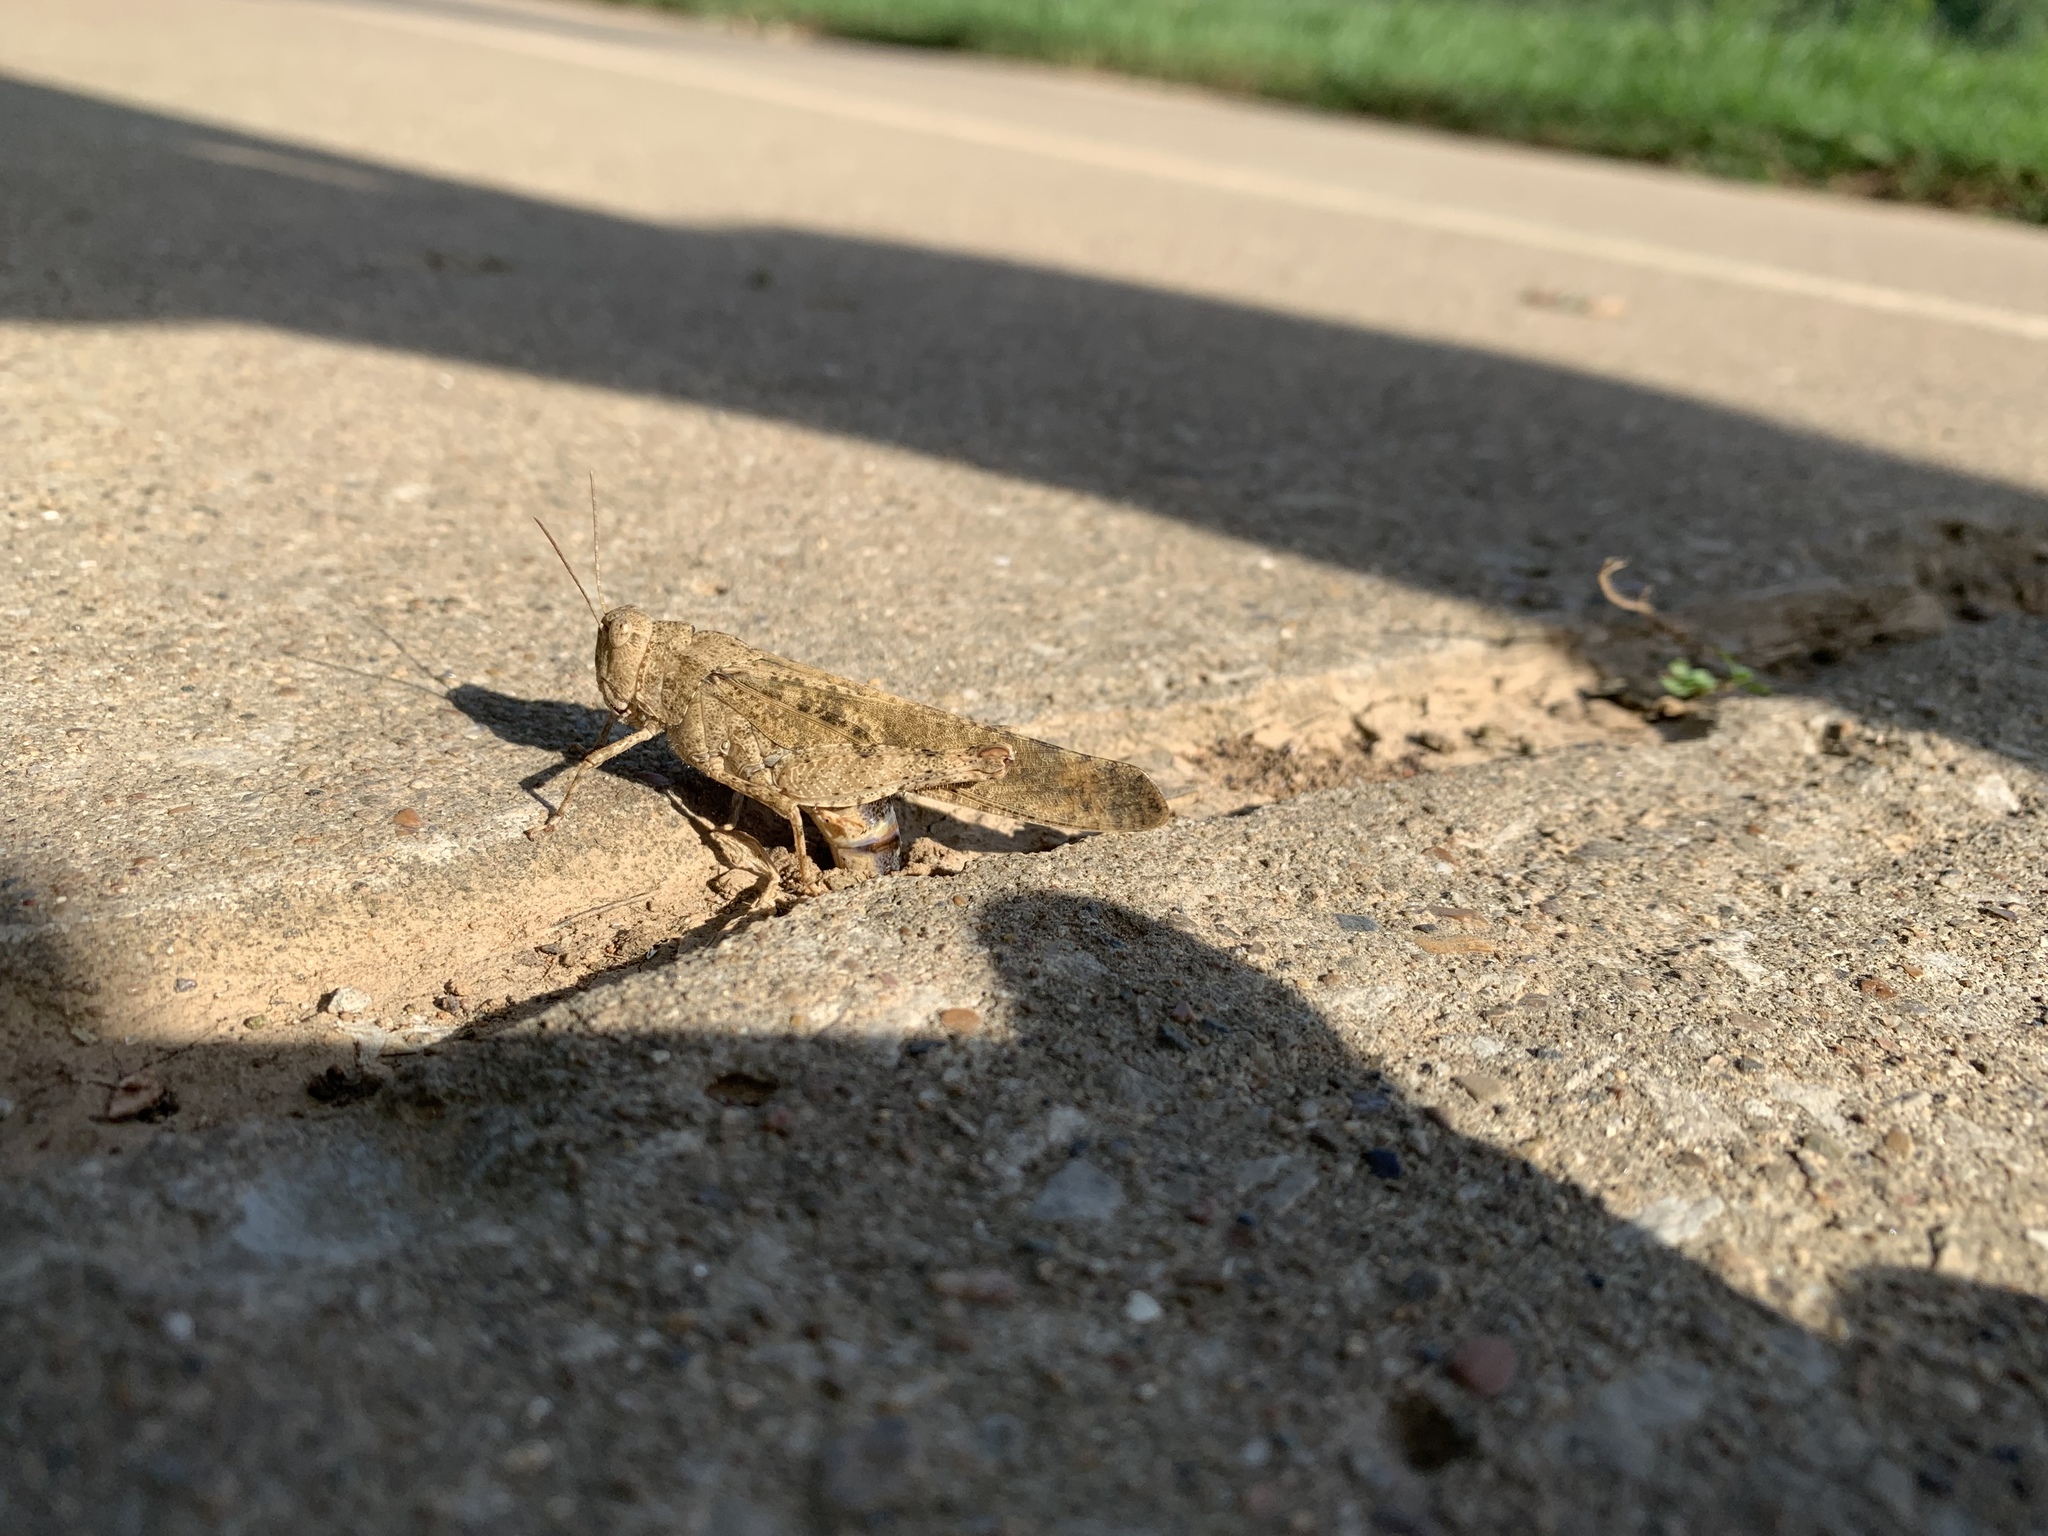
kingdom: Animalia
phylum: Arthropoda
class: Insecta
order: Orthoptera
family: Acrididae
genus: Dissosteira
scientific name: Dissosteira carolina
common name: Carolina grasshopper
